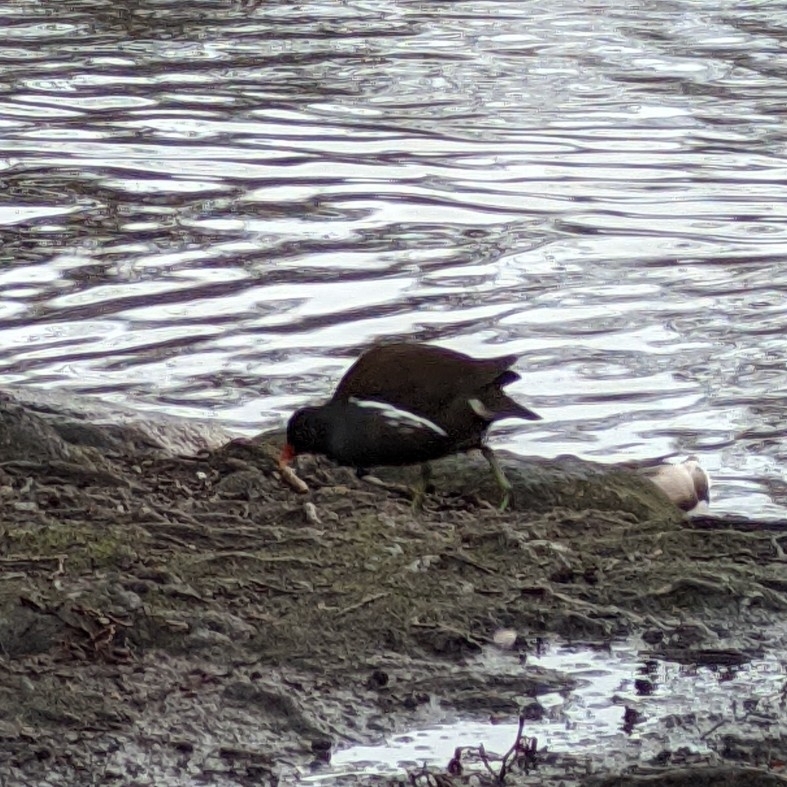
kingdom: Animalia
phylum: Chordata
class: Aves
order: Gruiformes
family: Rallidae
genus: Gallinula
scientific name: Gallinula chloropus
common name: Common moorhen
